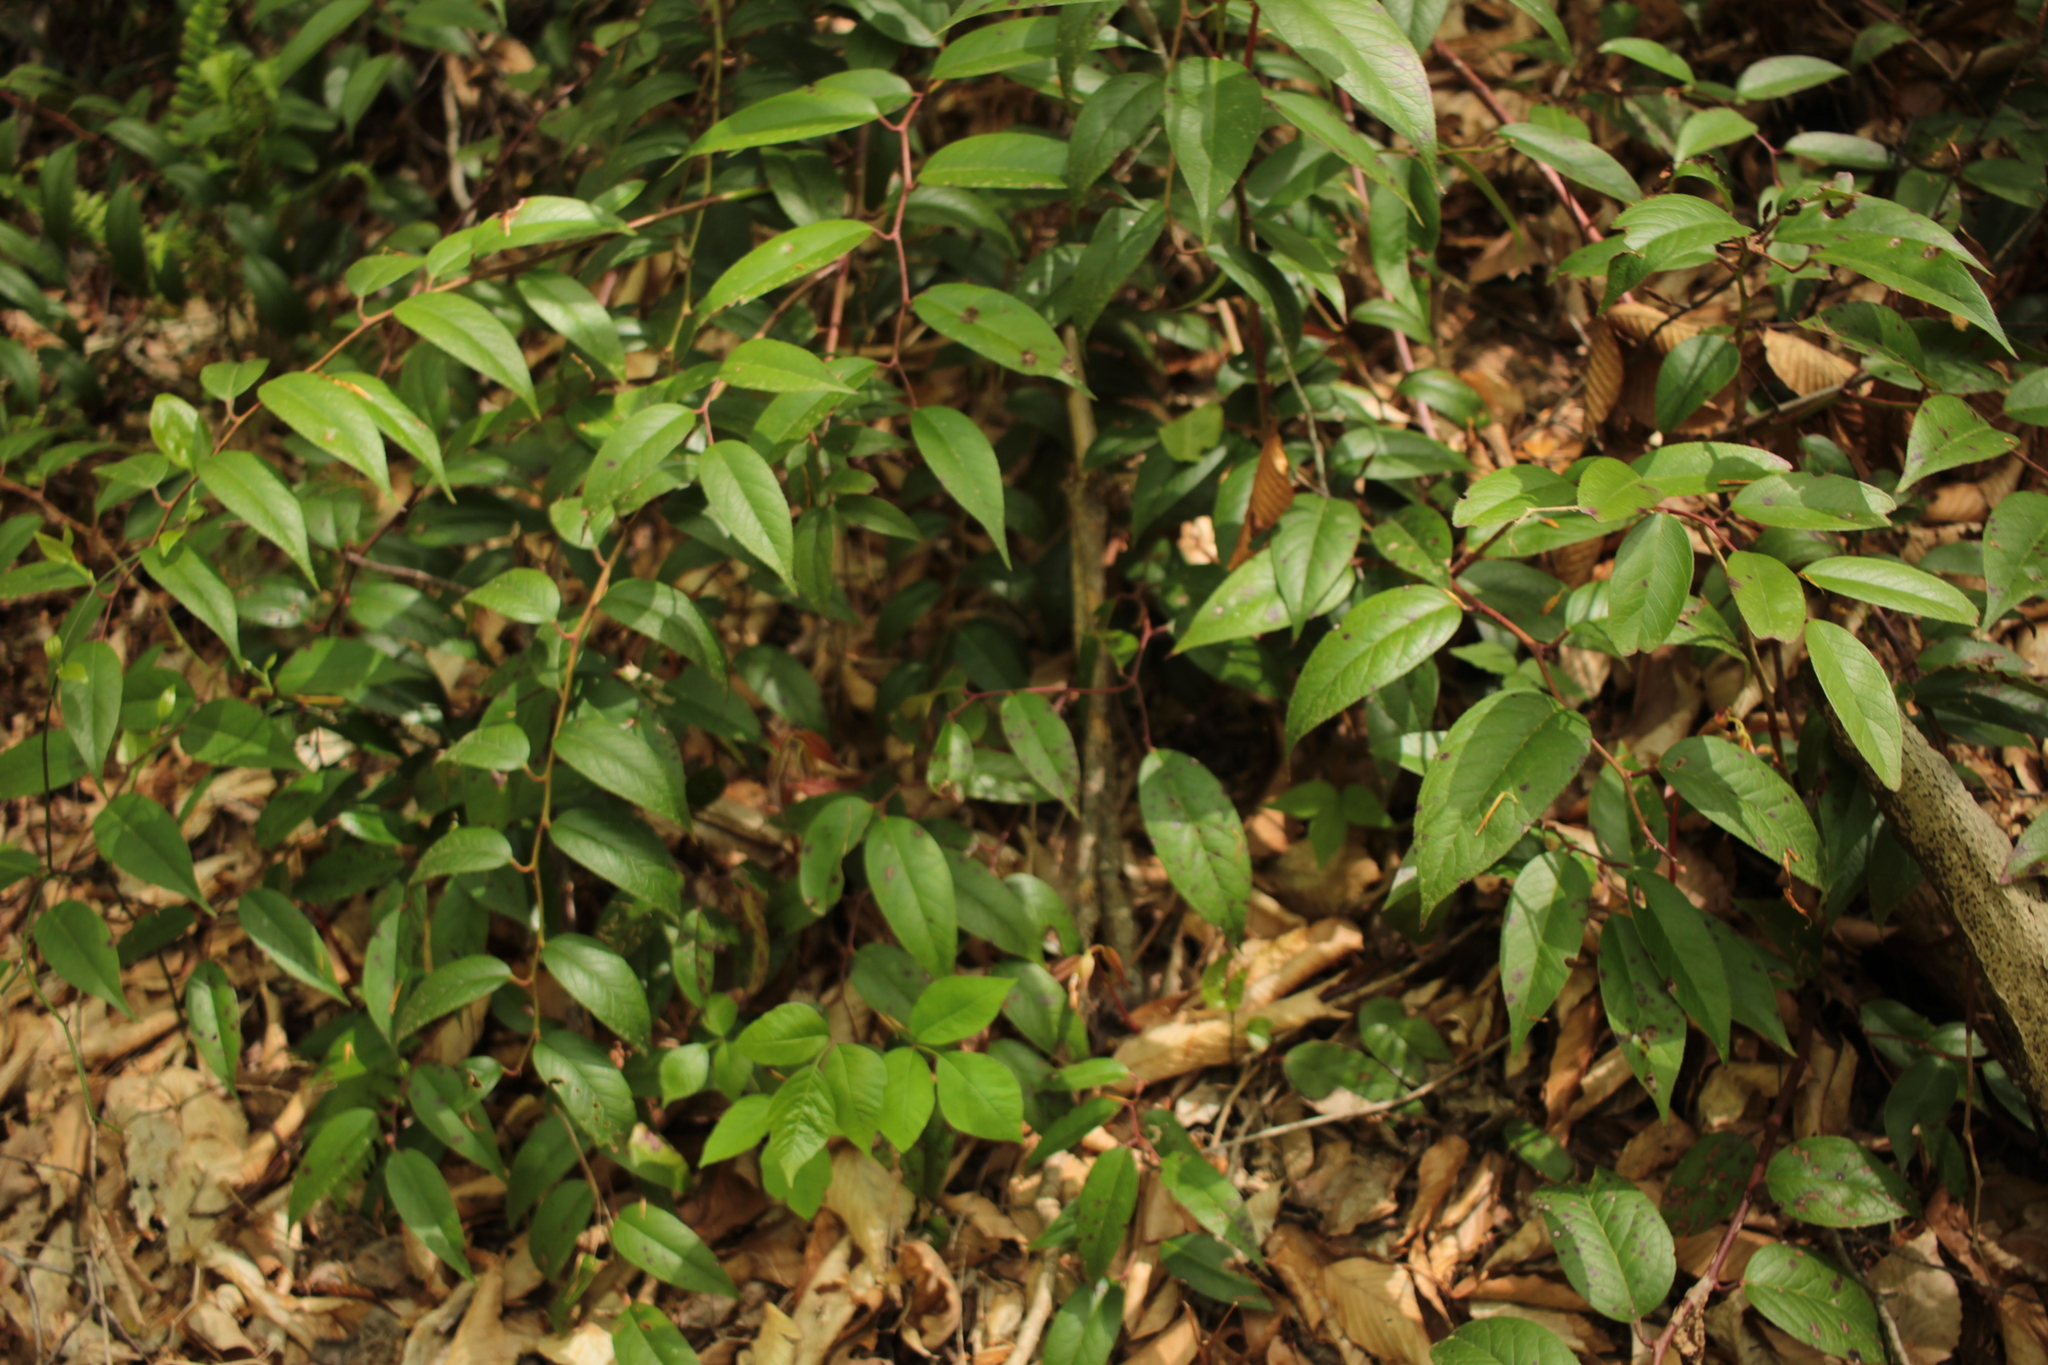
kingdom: Plantae
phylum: Tracheophyta
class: Magnoliopsida
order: Ericales
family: Ericaceae
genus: Leucothoe
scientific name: Leucothoe fontanesiana
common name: Fetterbush
